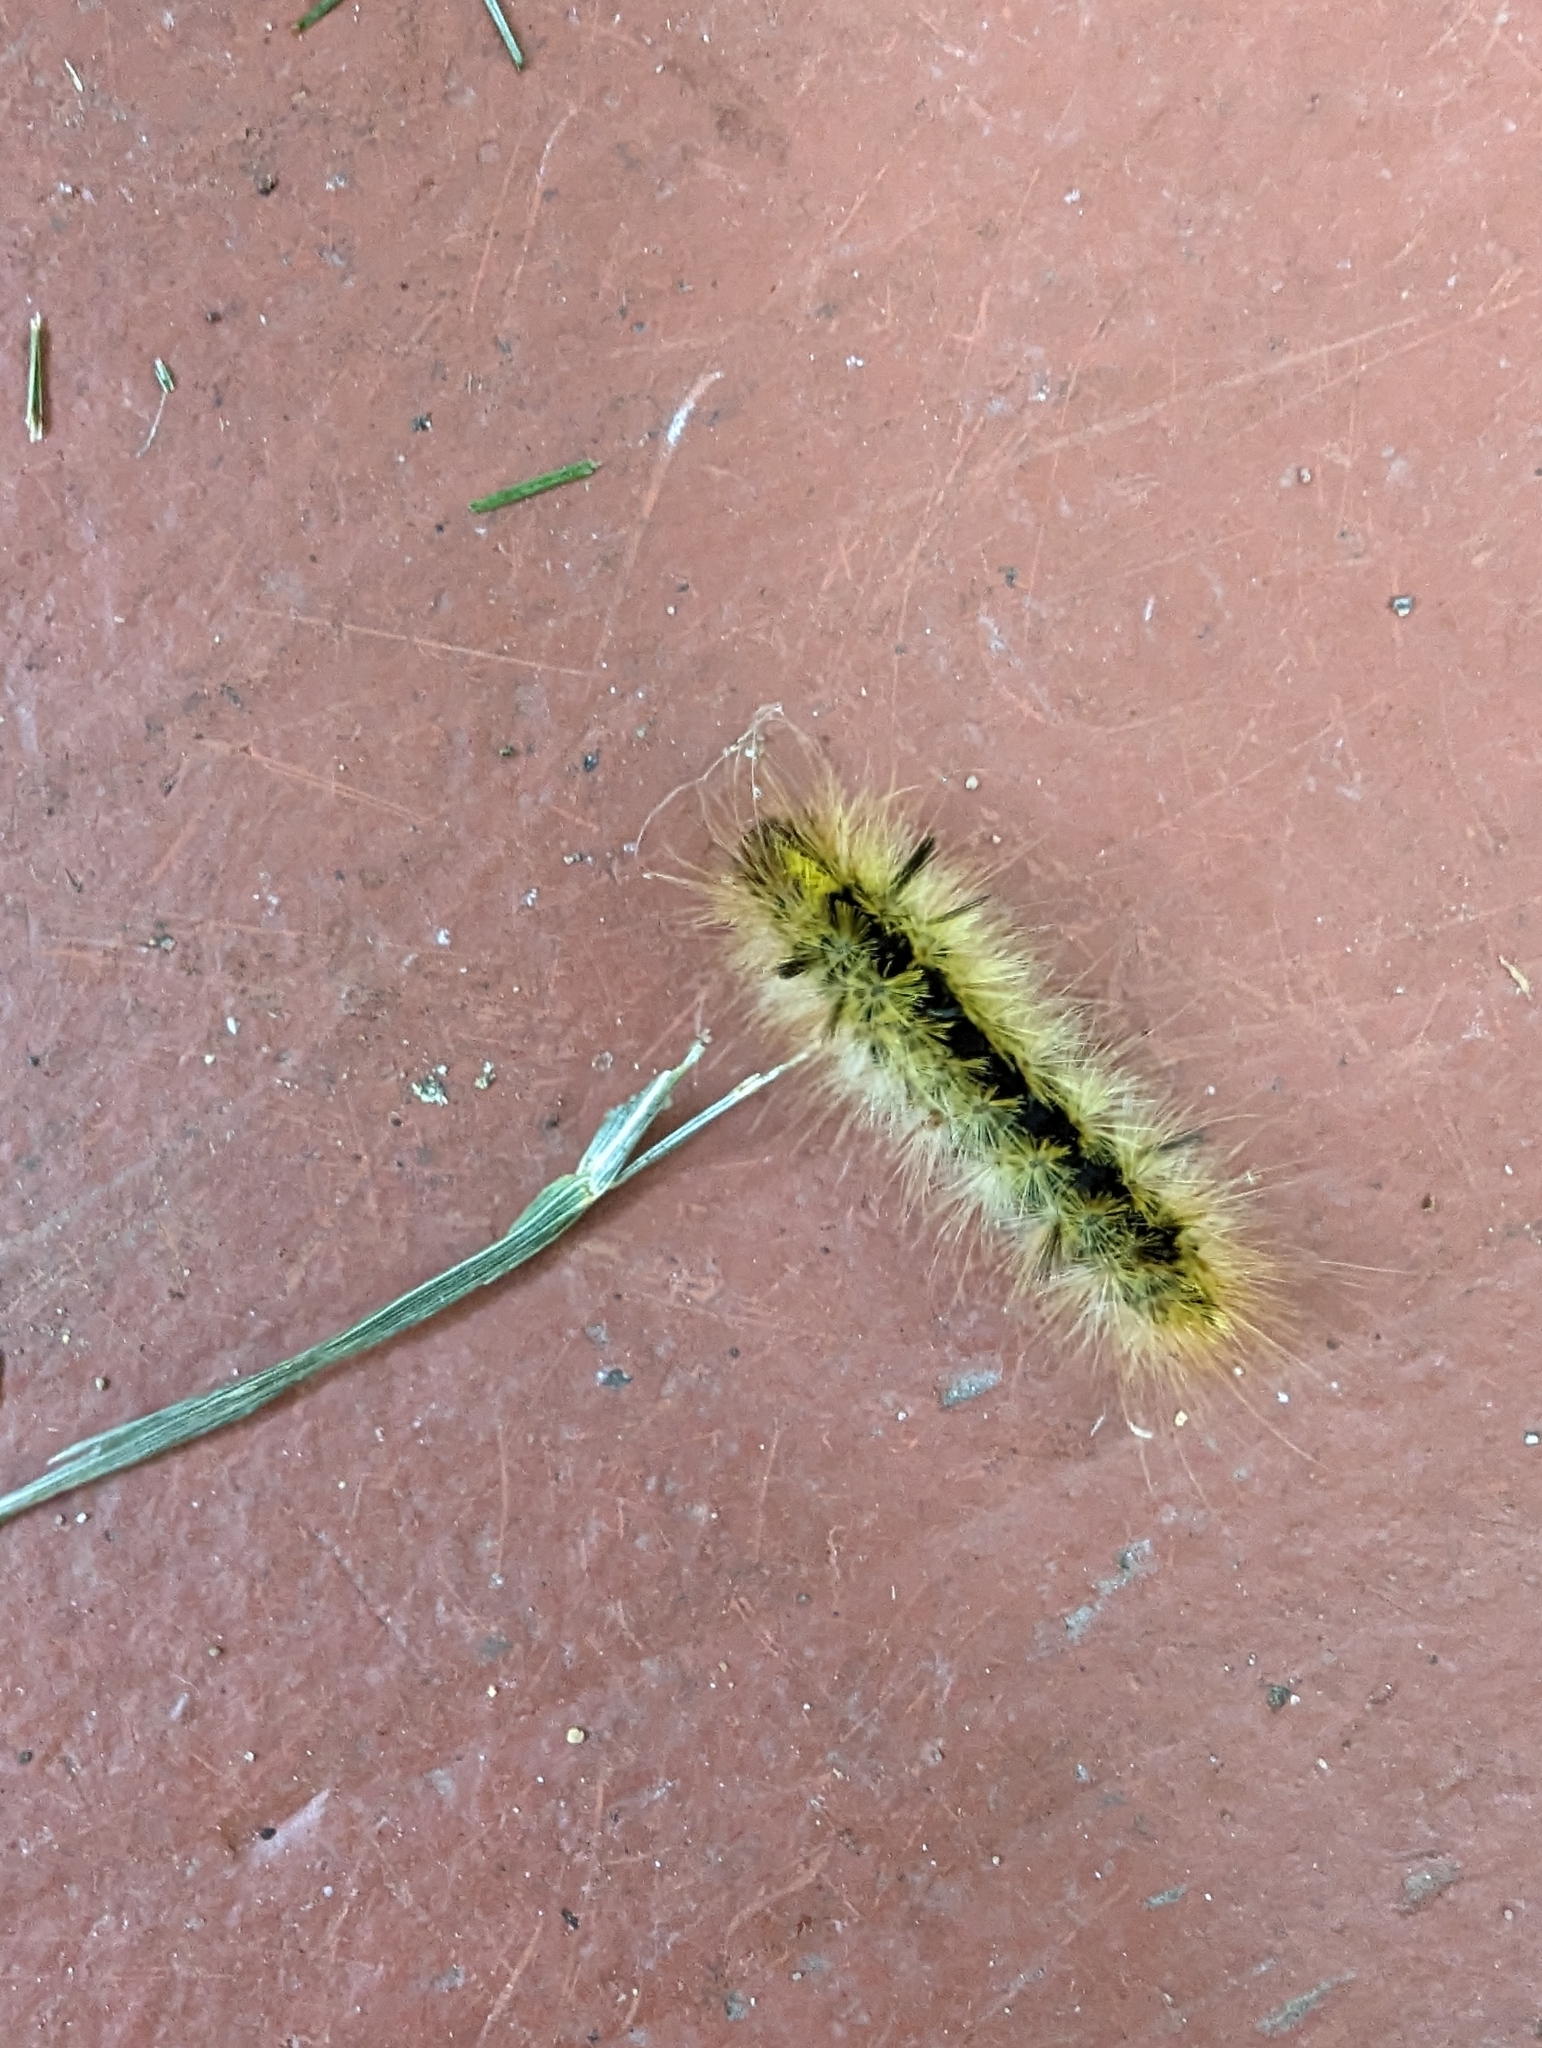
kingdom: Animalia
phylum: Arthropoda
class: Insecta
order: Lepidoptera
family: Erebidae
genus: Lophocampa
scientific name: Lophocampa argentata
